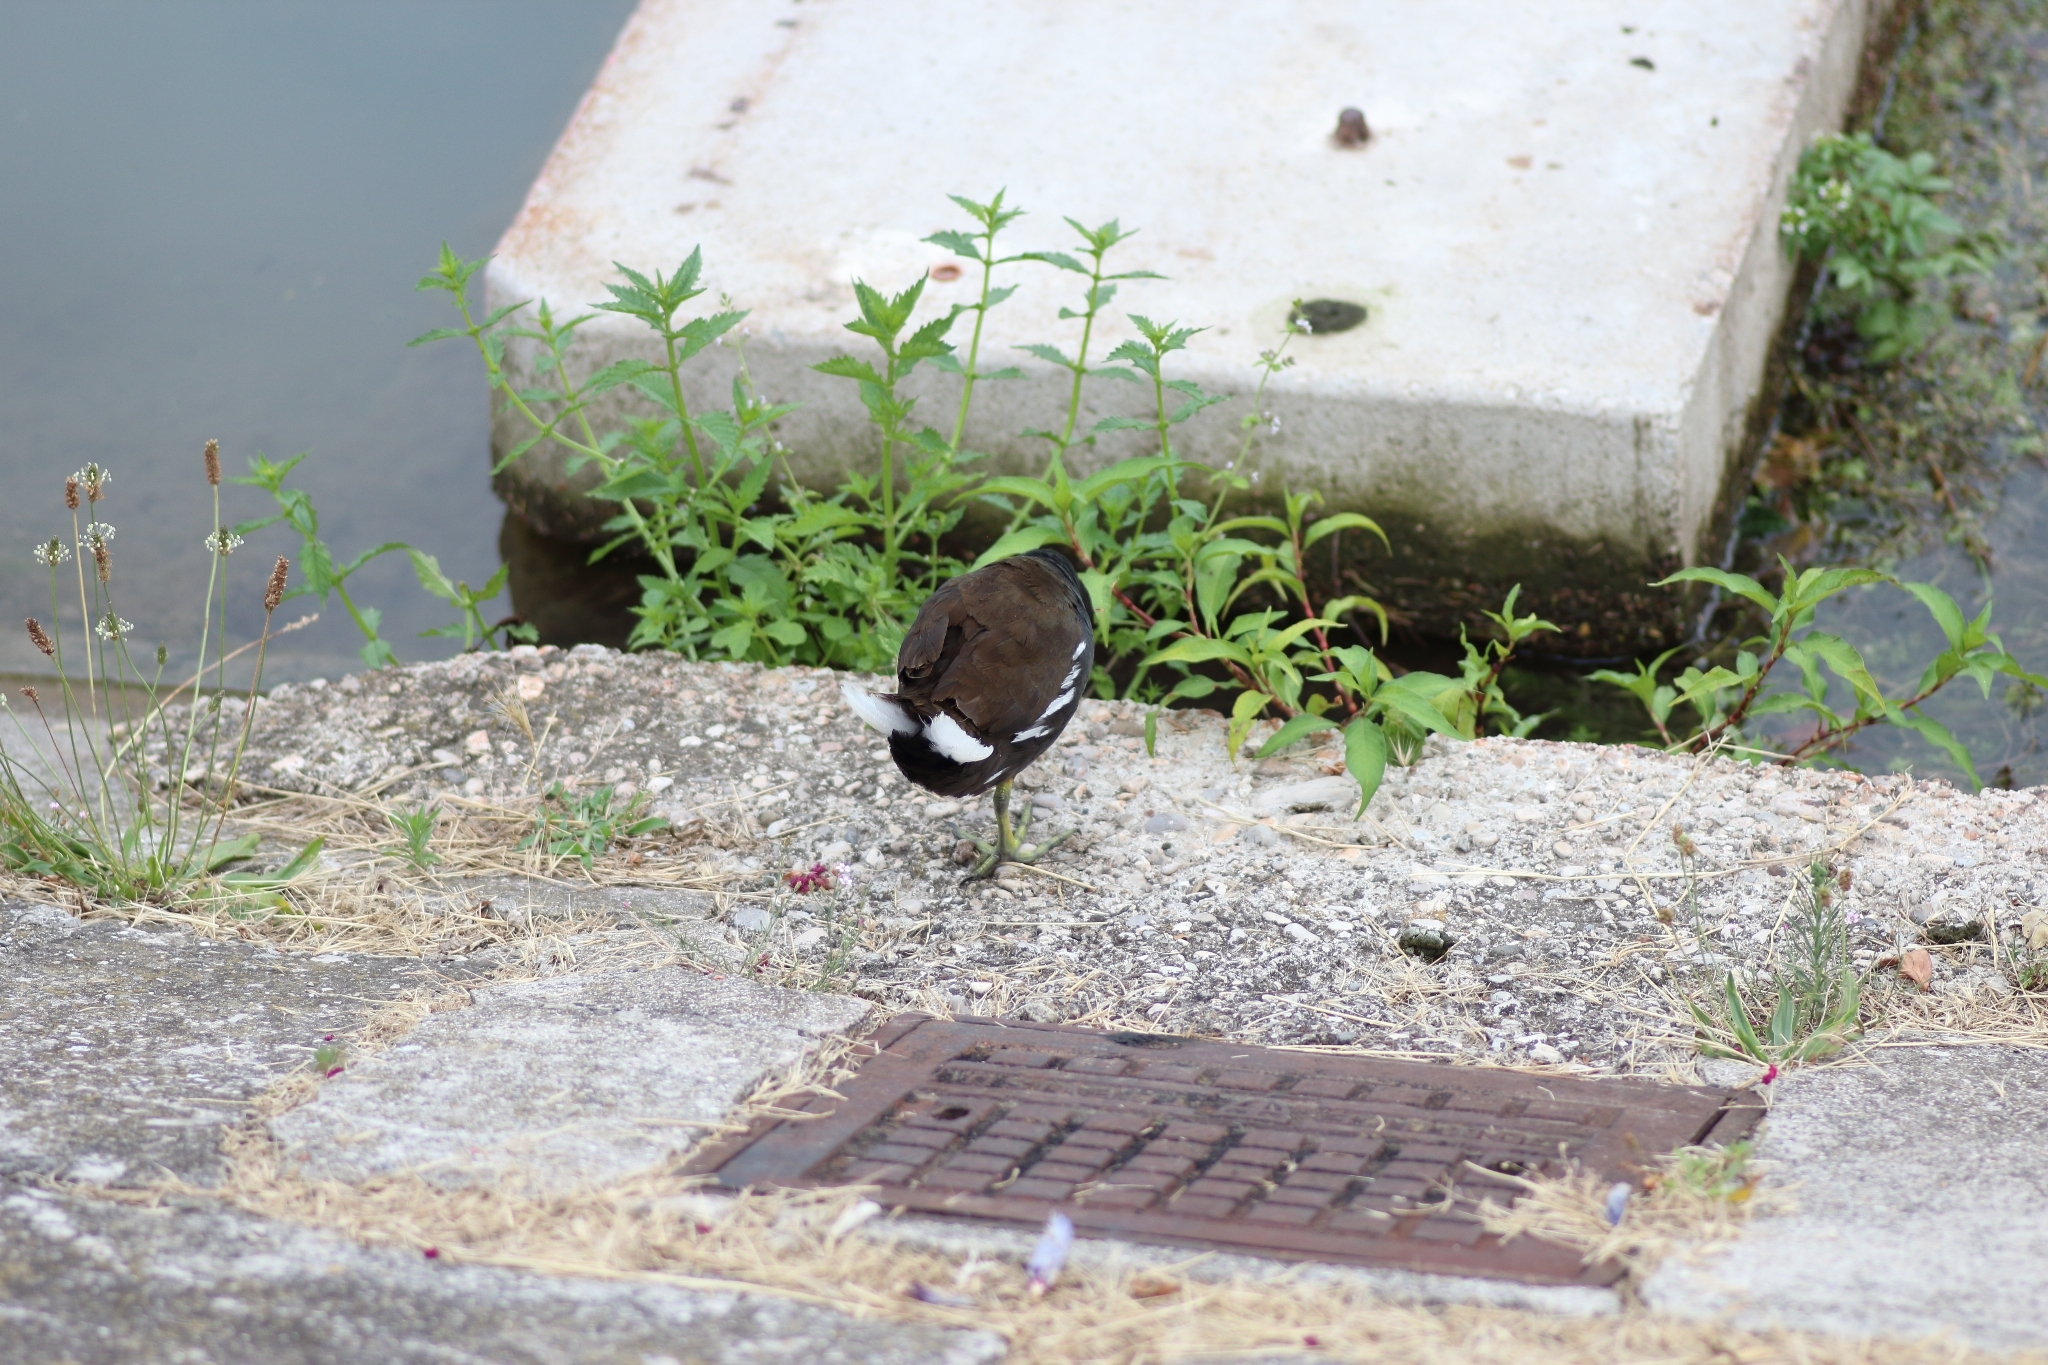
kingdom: Animalia
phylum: Chordata
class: Aves
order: Gruiformes
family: Rallidae
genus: Gallinula
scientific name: Gallinula chloropus
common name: Common moorhen
